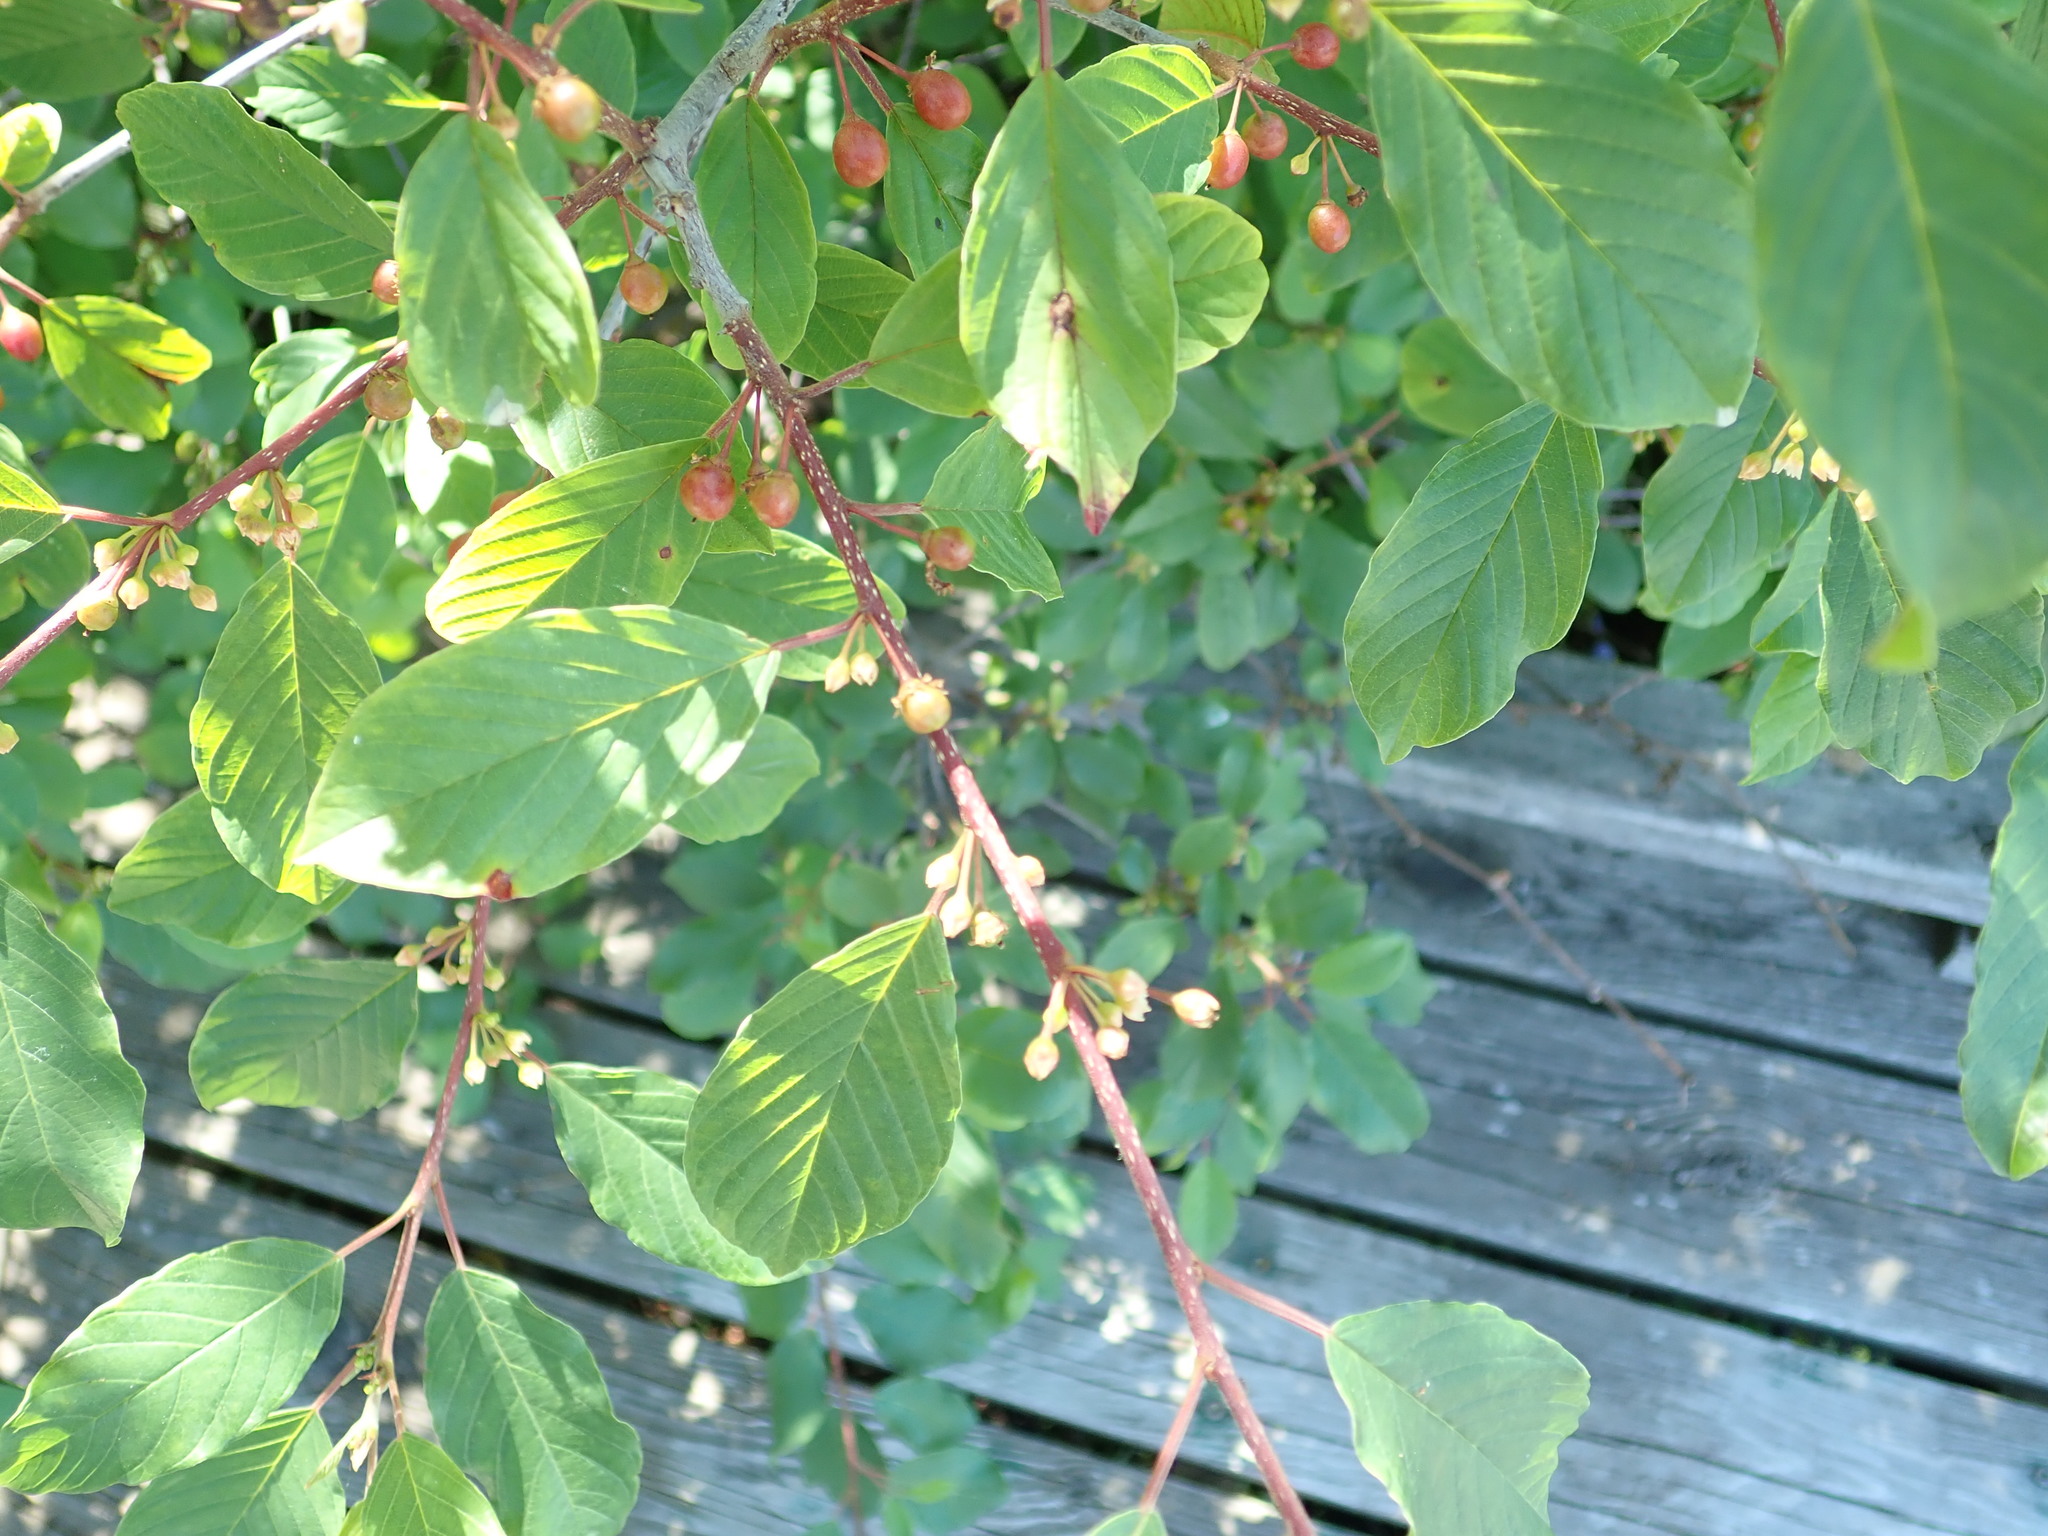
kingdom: Plantae
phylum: Tracheophyta
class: Magnoliopsida
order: Rosales
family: Rhamnaceae
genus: Frangula
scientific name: Frangula alnus
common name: Alder buckthorn
